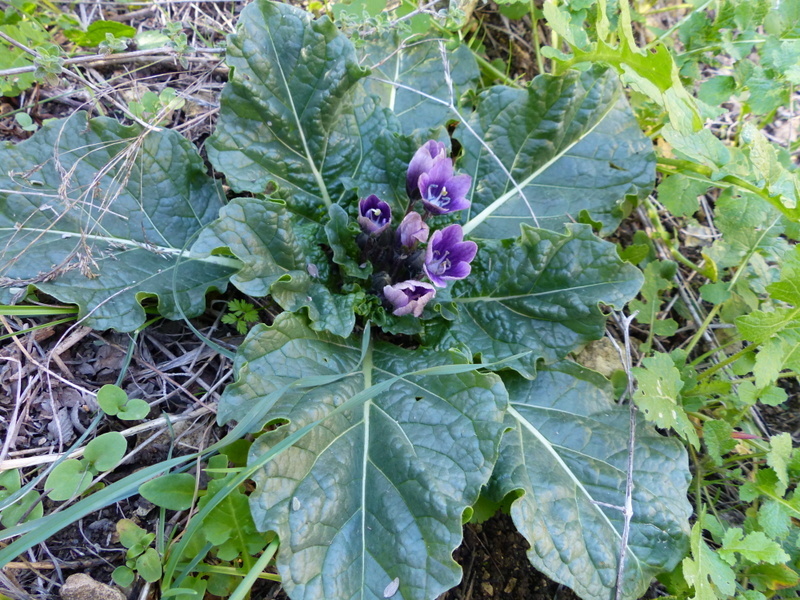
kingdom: Plantae
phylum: Tracheophyta
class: Magnoliopsida
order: Solanales
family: Solanaceae
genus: Mandragora
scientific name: Mandragora officinarum
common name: Mandrake
